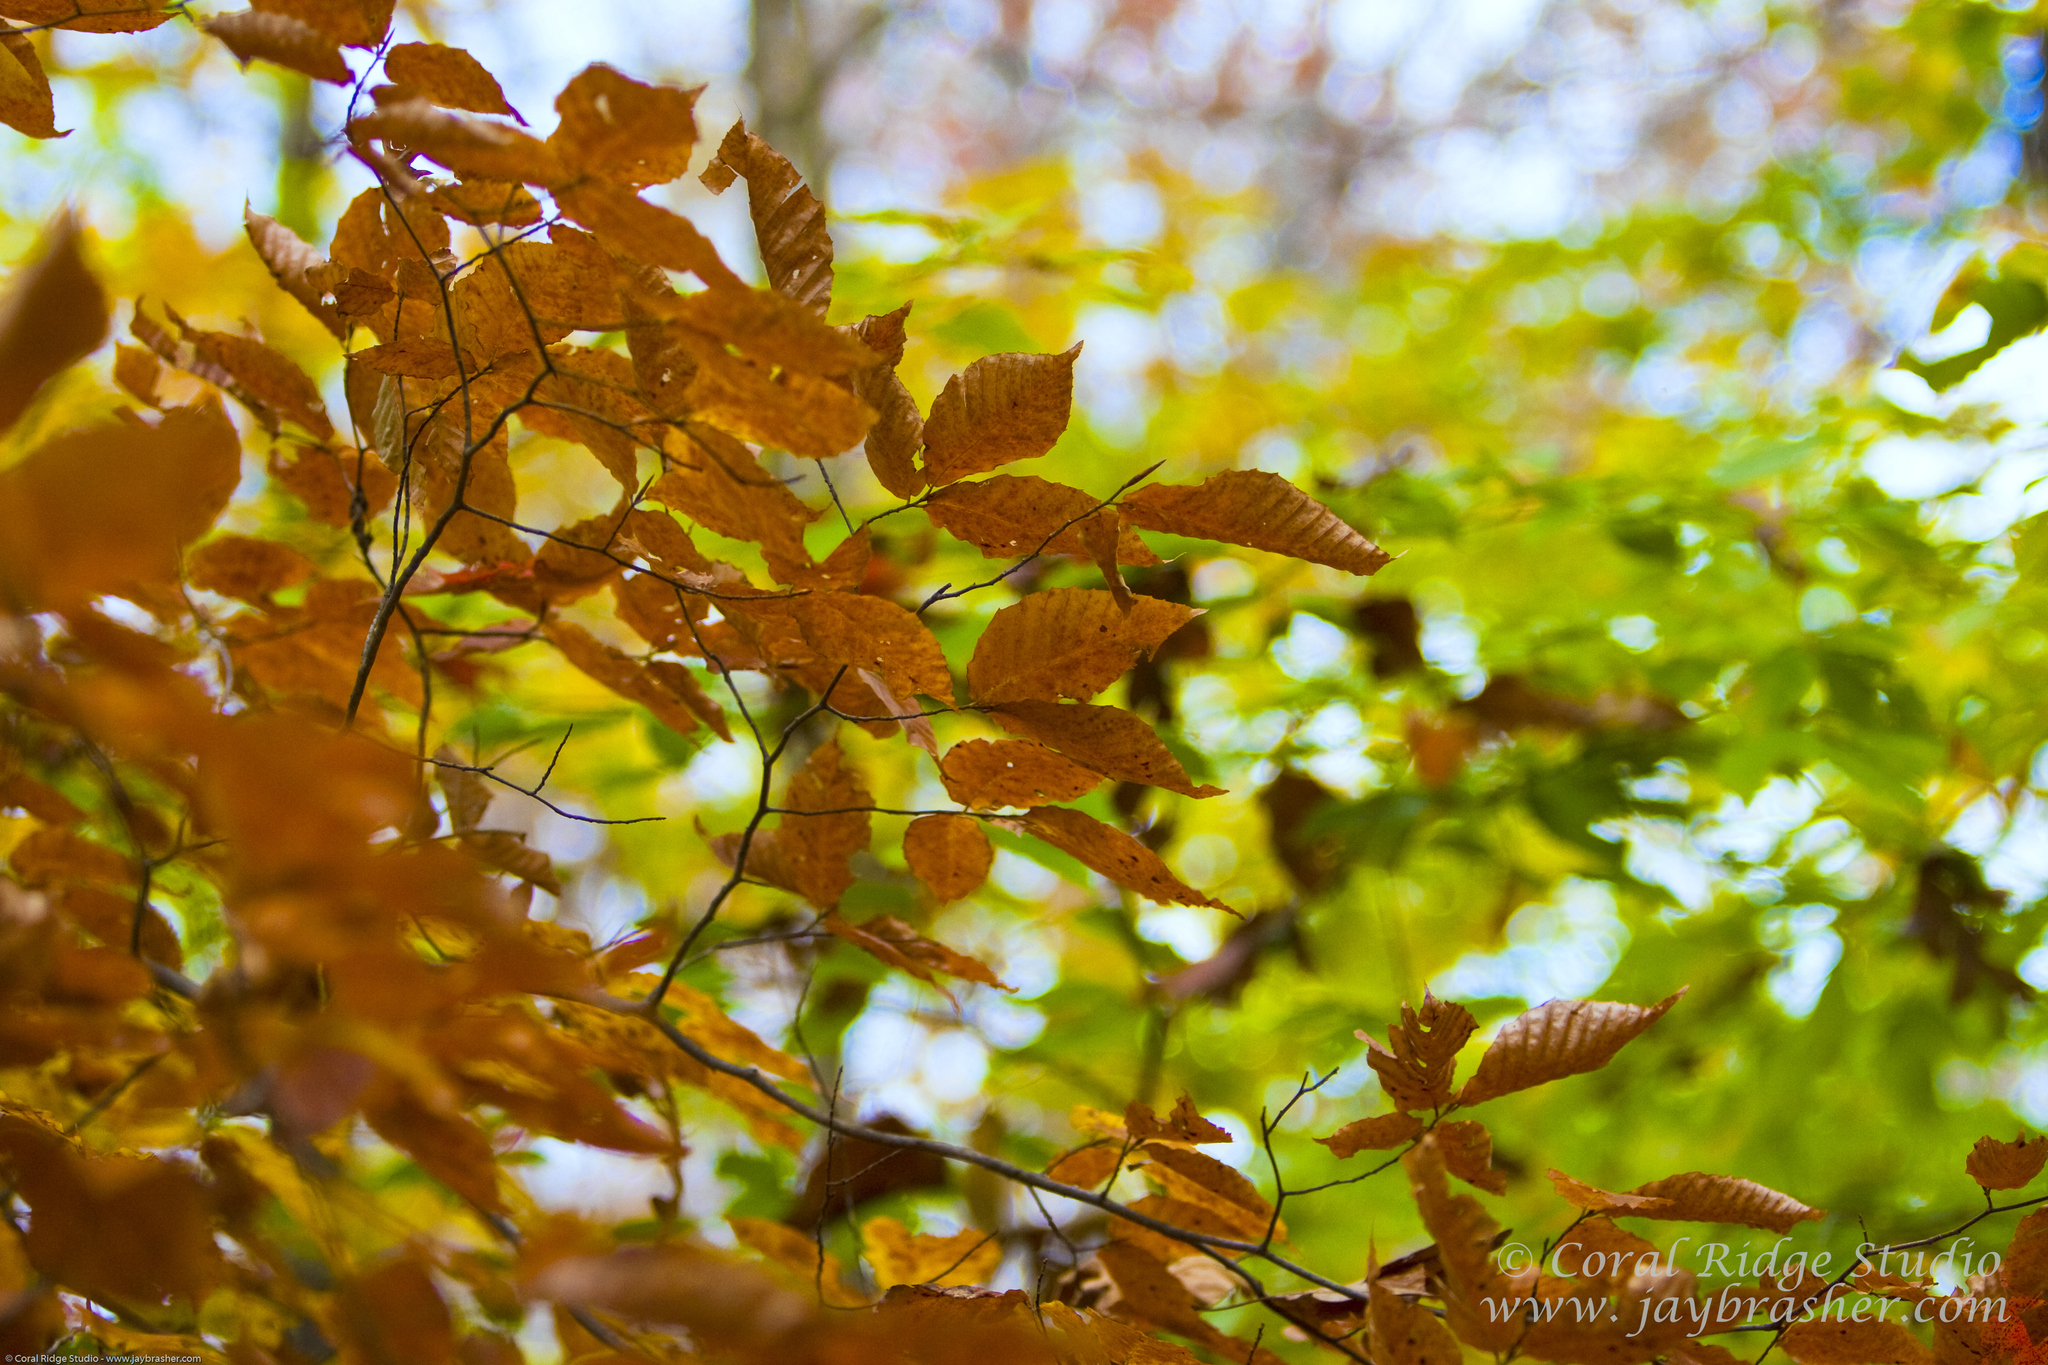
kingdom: Plantae
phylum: Tracheophyta
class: Magnoliopsida
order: Fagales
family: Fagaceae
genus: Fagus
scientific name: Fagus grandifolia
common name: American beech
